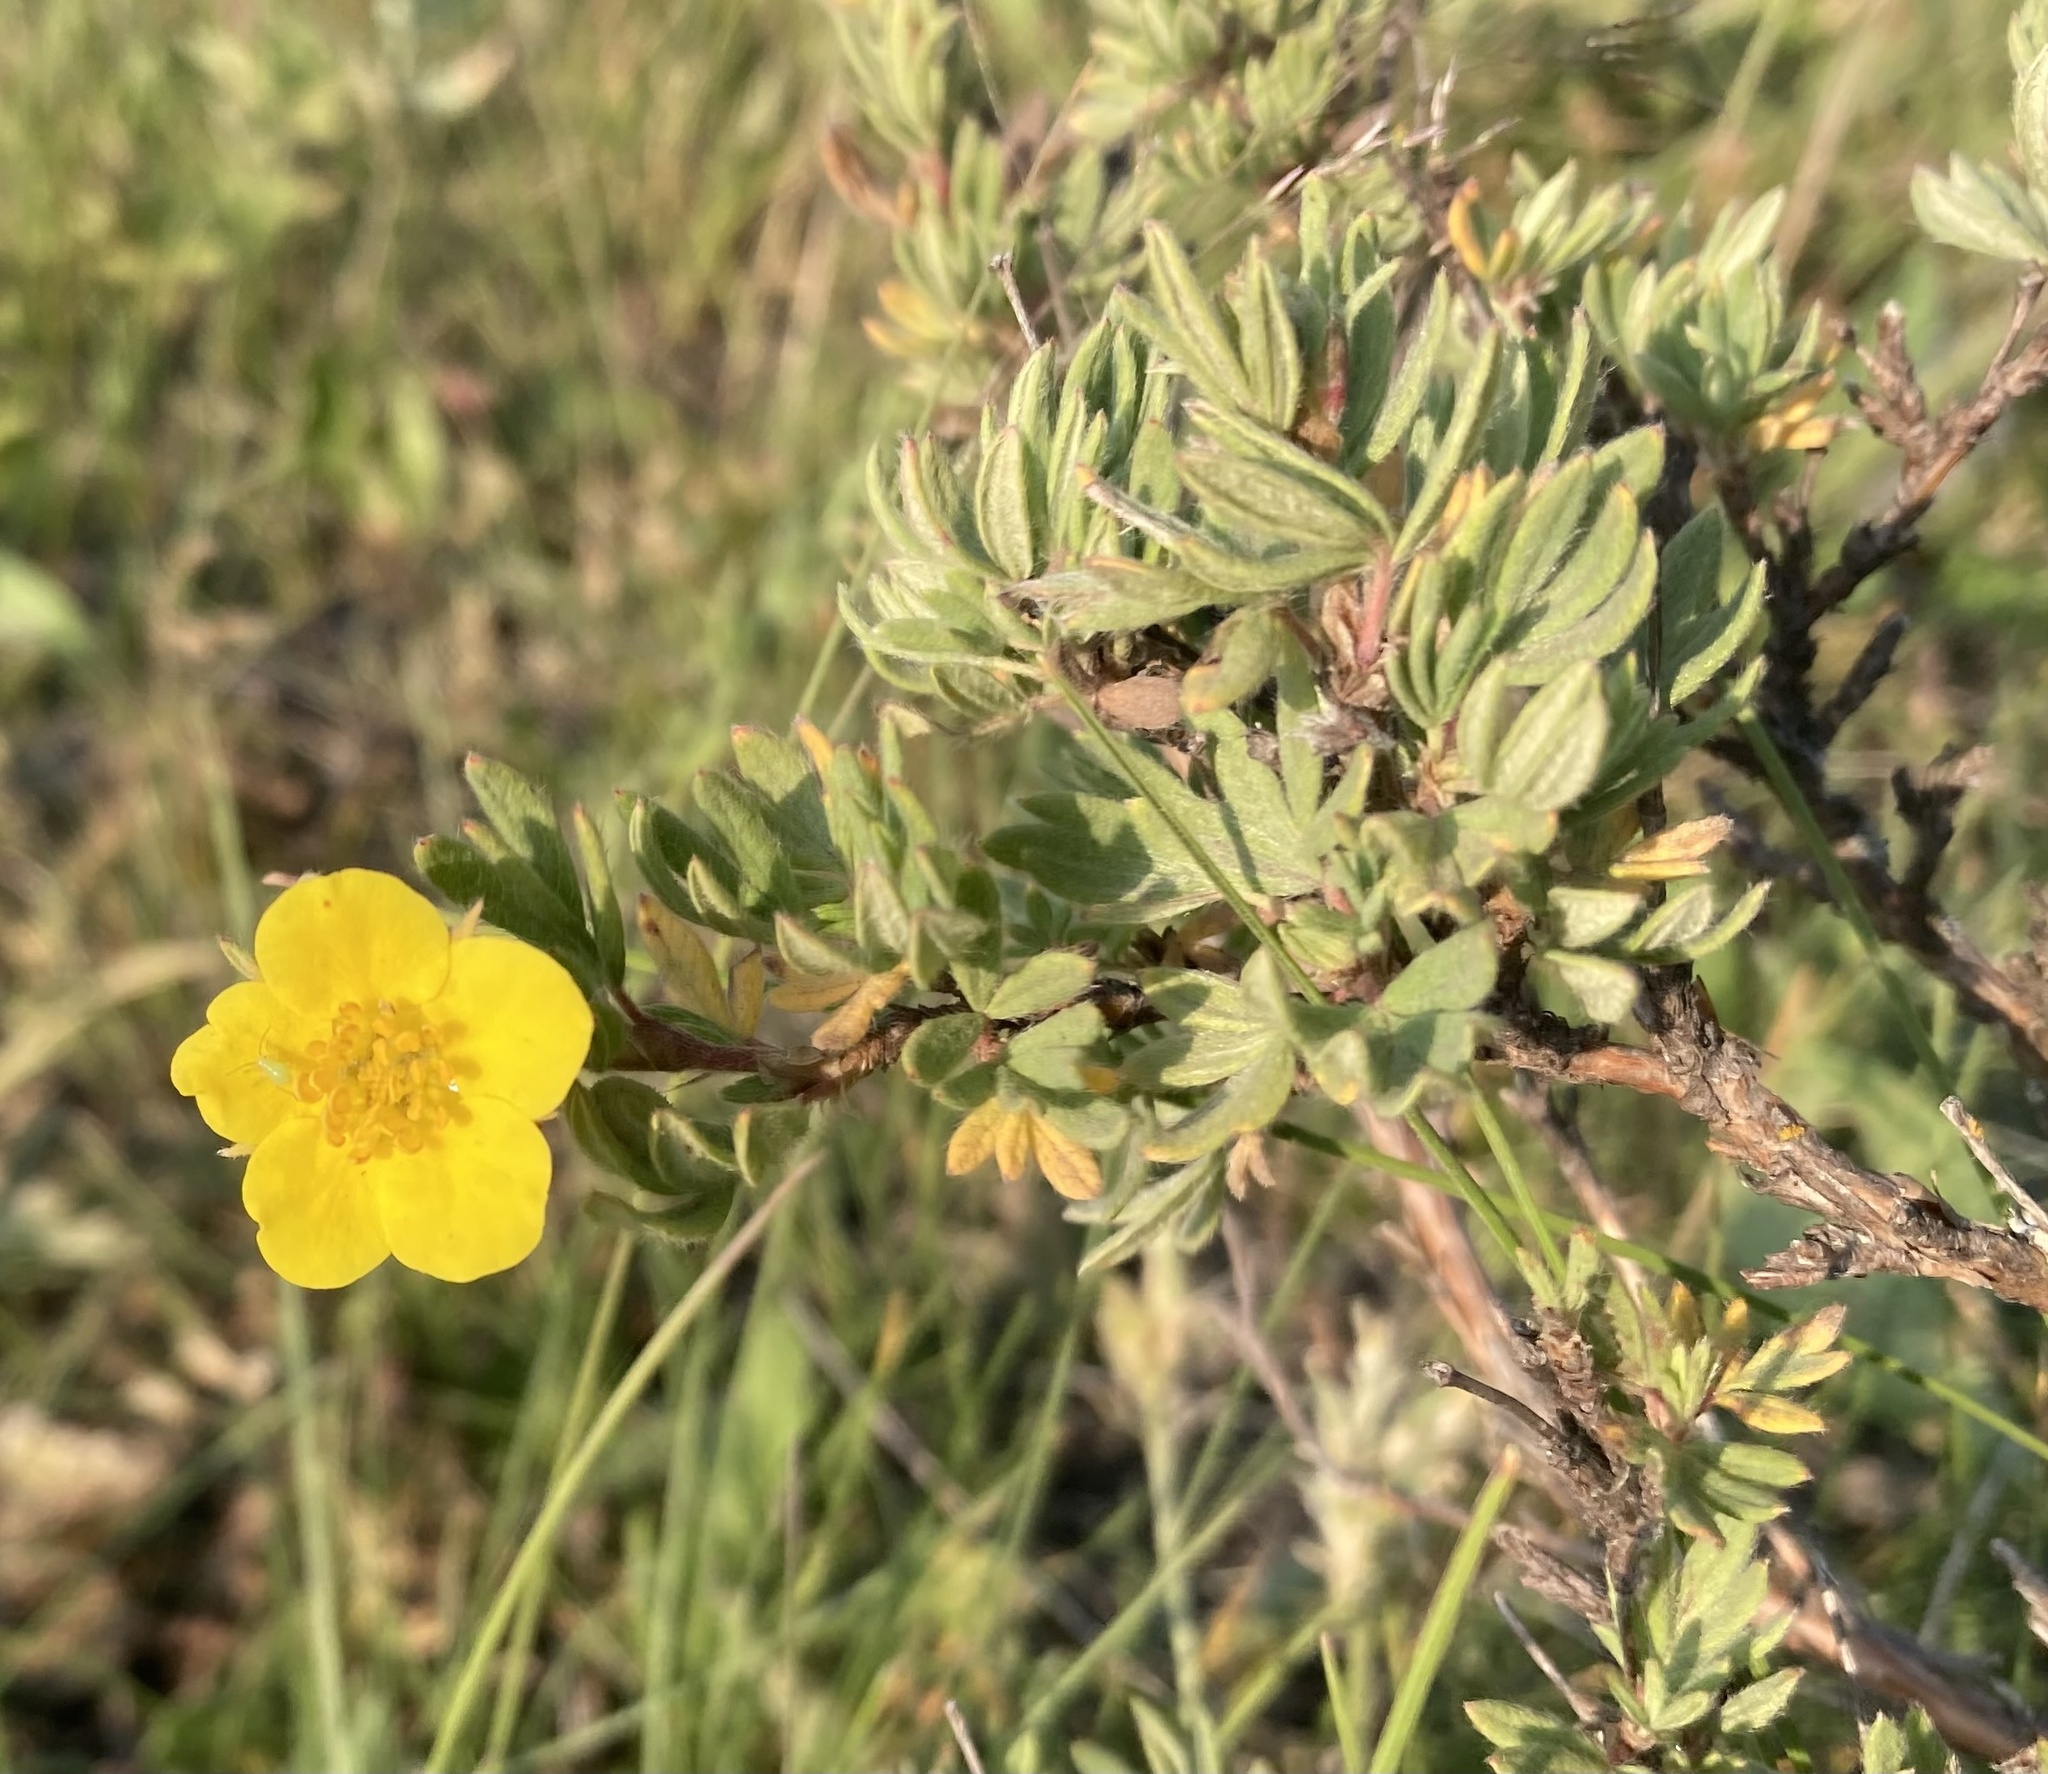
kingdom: Plantae
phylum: Tracheophyta
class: Magnoliopsida
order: Rosales
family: Rosaceae
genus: Dasiphora
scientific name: Dasiphora fruticosa
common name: Shrubby cinquefoil
